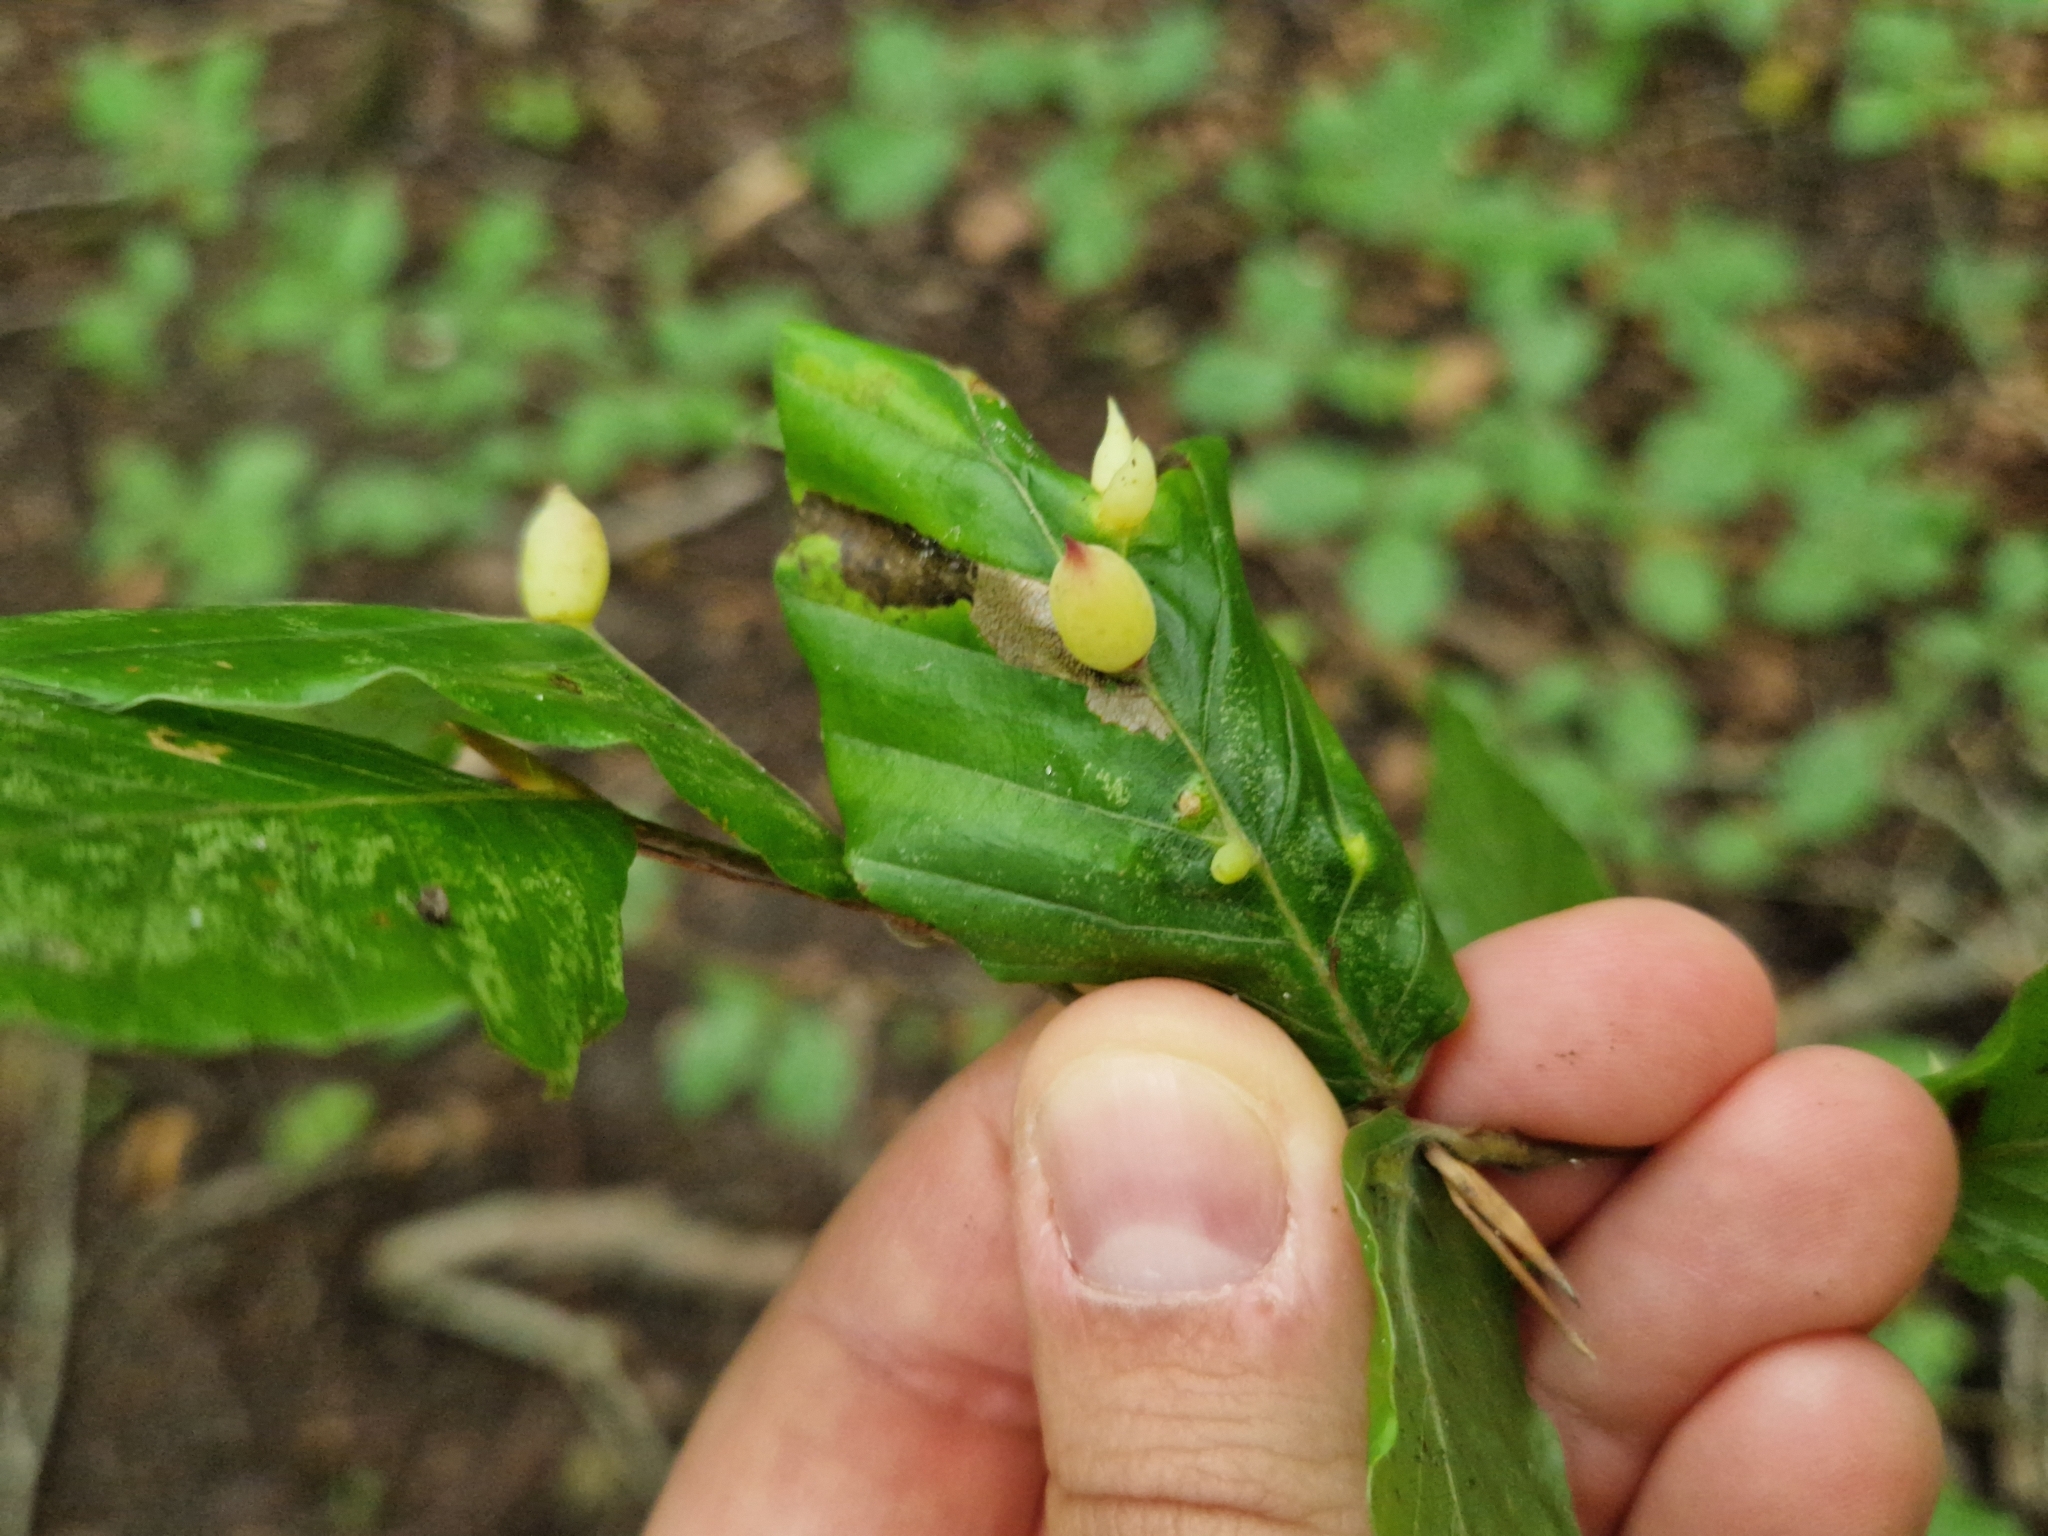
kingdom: Animalia
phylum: Arthropoda
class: Insecta
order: Diptera
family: Cecidomyiidae
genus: Mikiola
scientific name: Mikiola fagi
